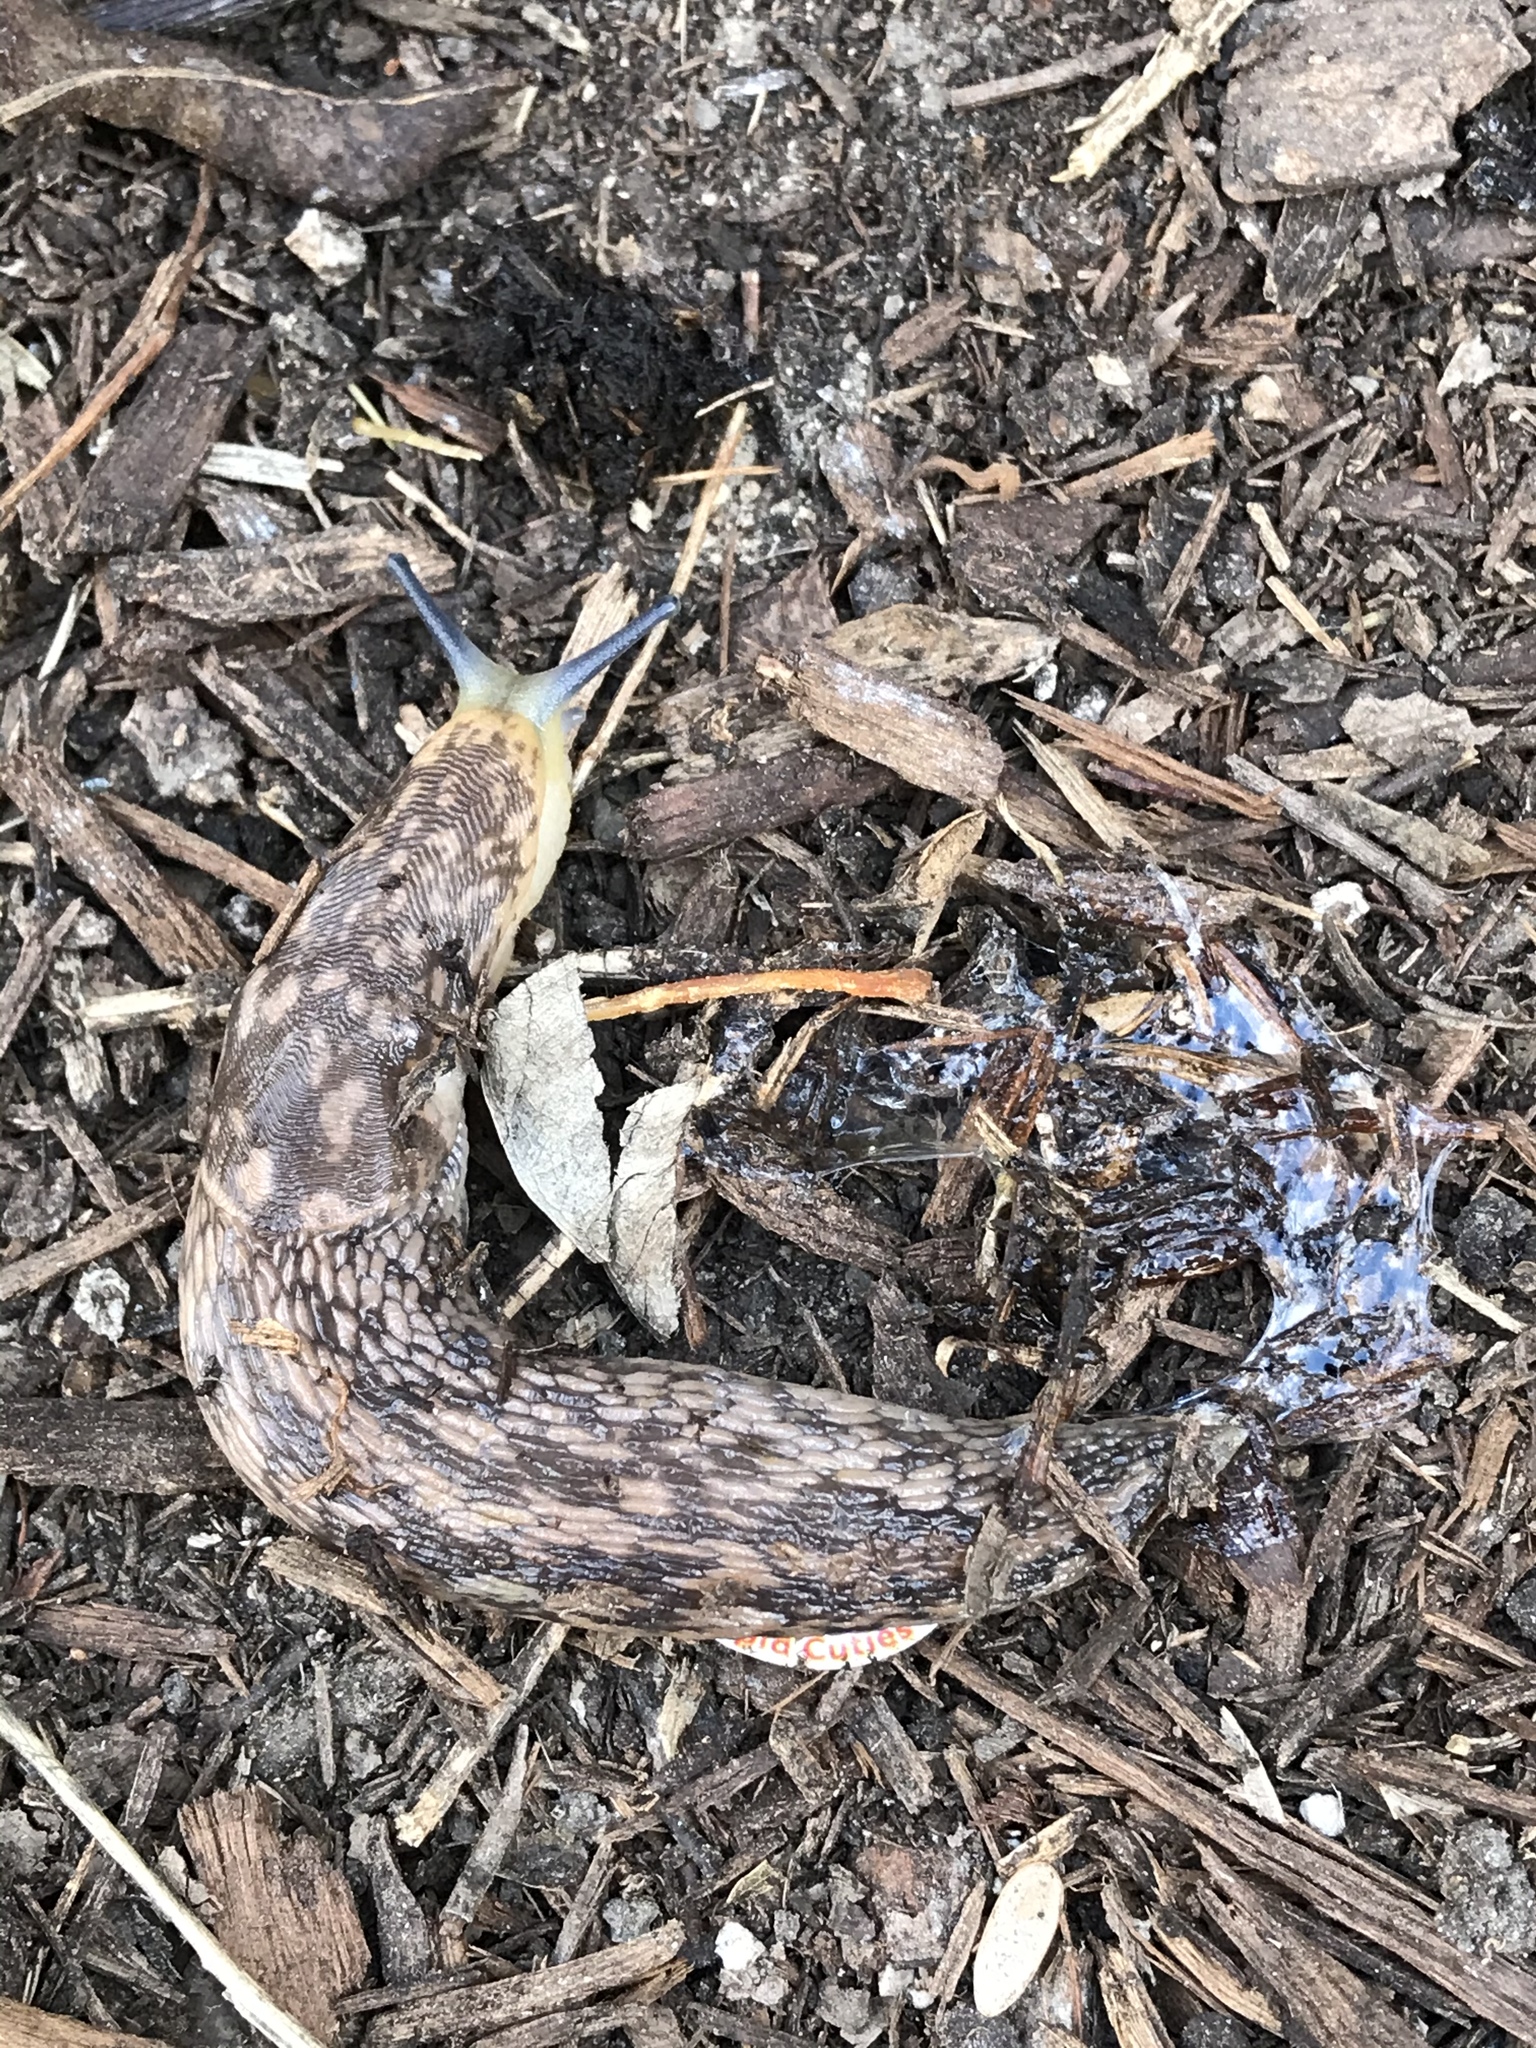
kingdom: Animalia
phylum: Mollusca
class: Gastropoda
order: Stylommatophora
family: Limacidae
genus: Limacus
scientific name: Limacus flavus
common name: Yellow gardenslug
